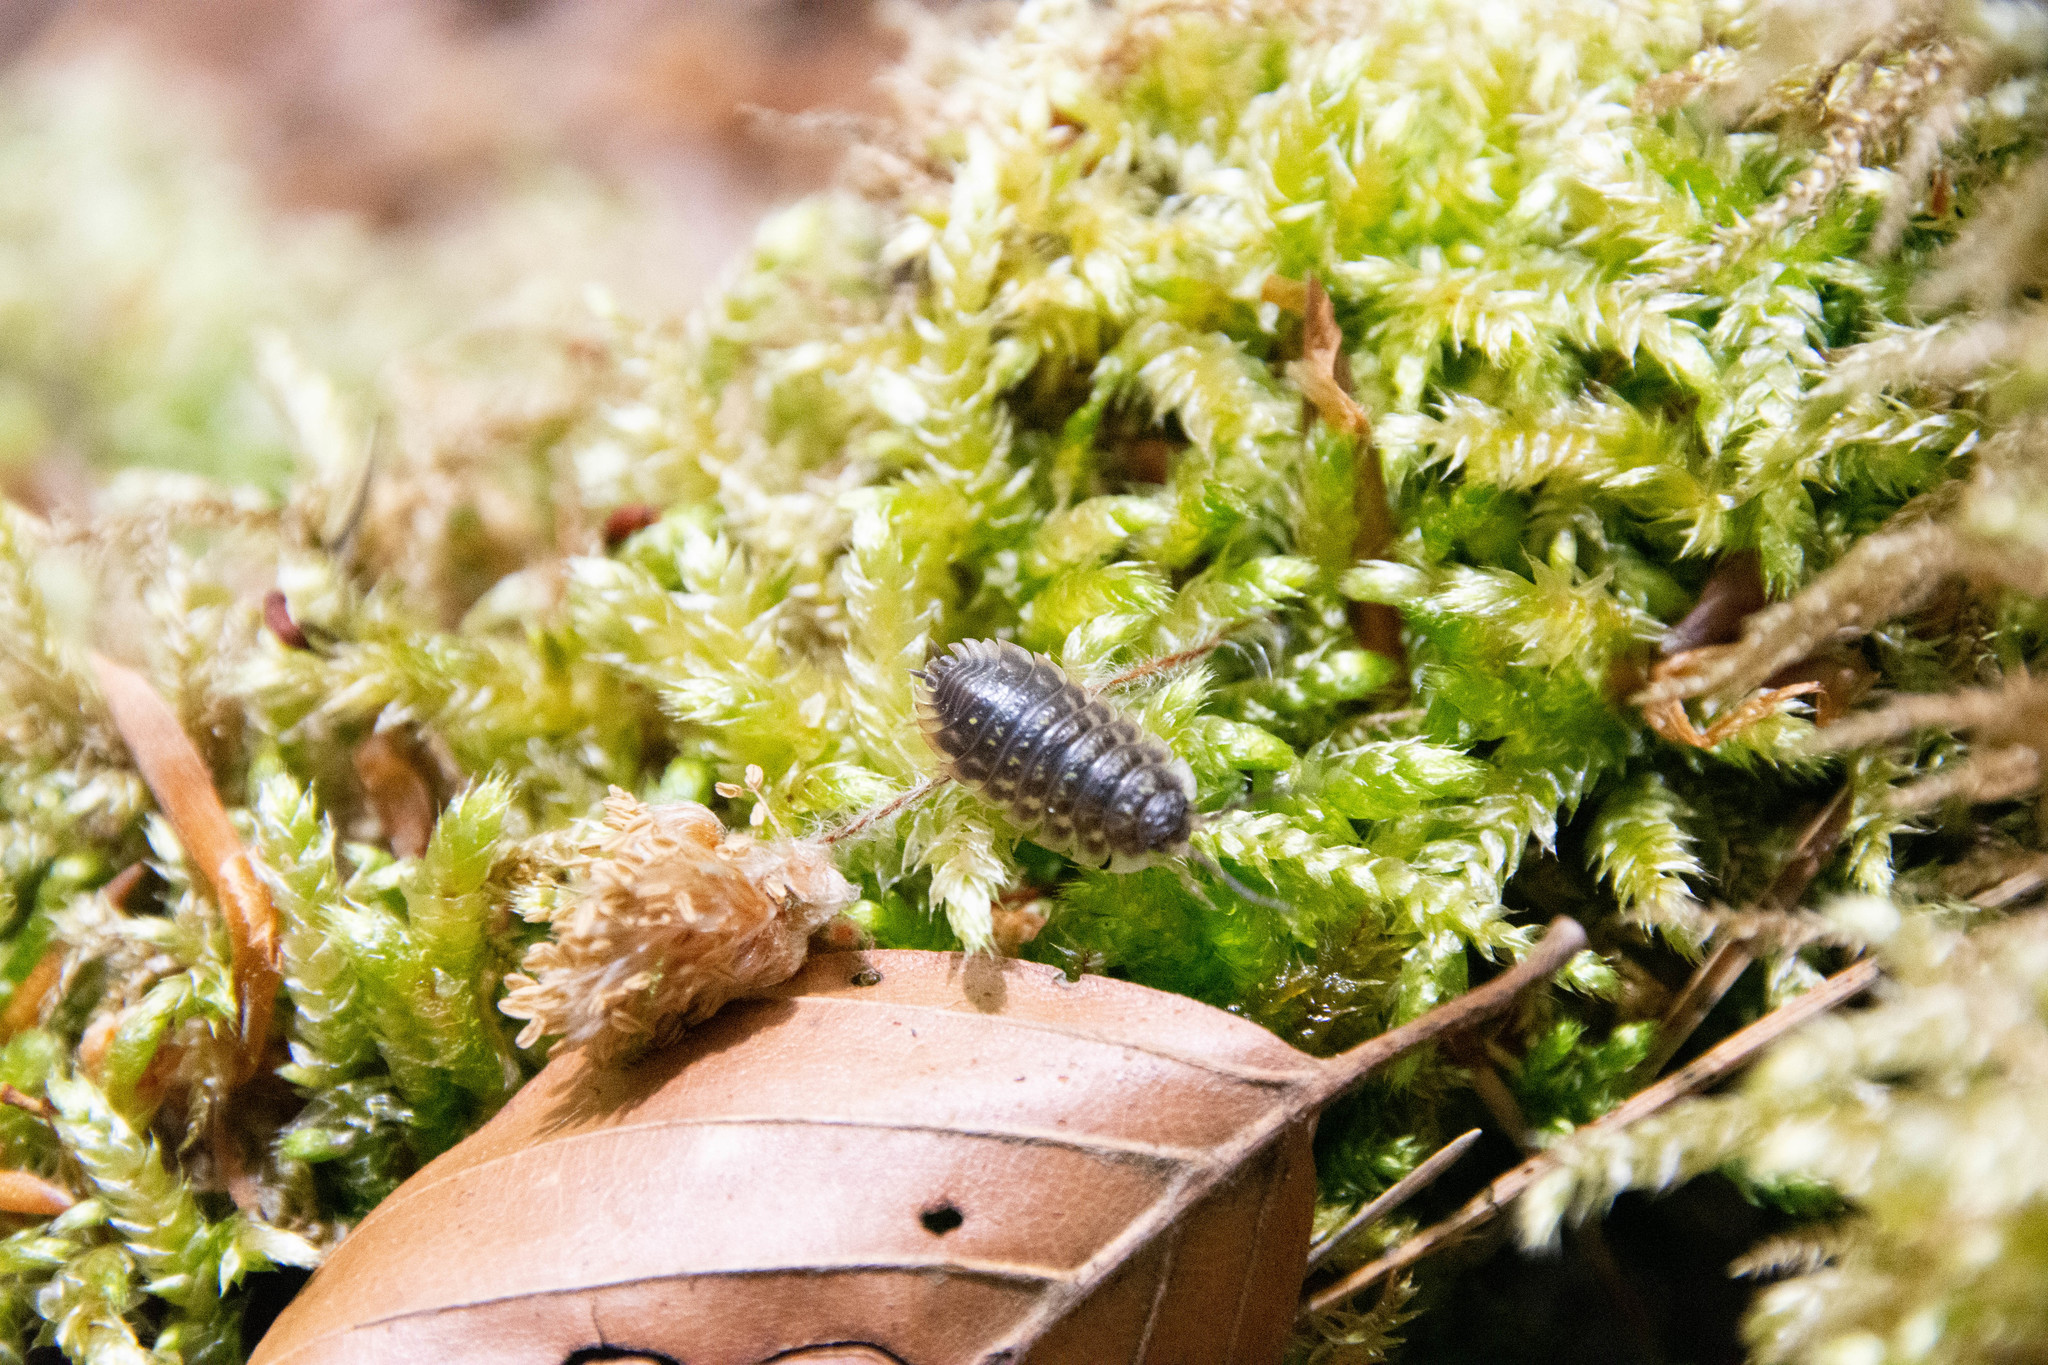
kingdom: Animalia
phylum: Arthropoda
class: Malacostraca
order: Isopoda
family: Oniscidae
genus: Oniscus
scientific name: Oniscus asellus
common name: Common shiny woodlouse
